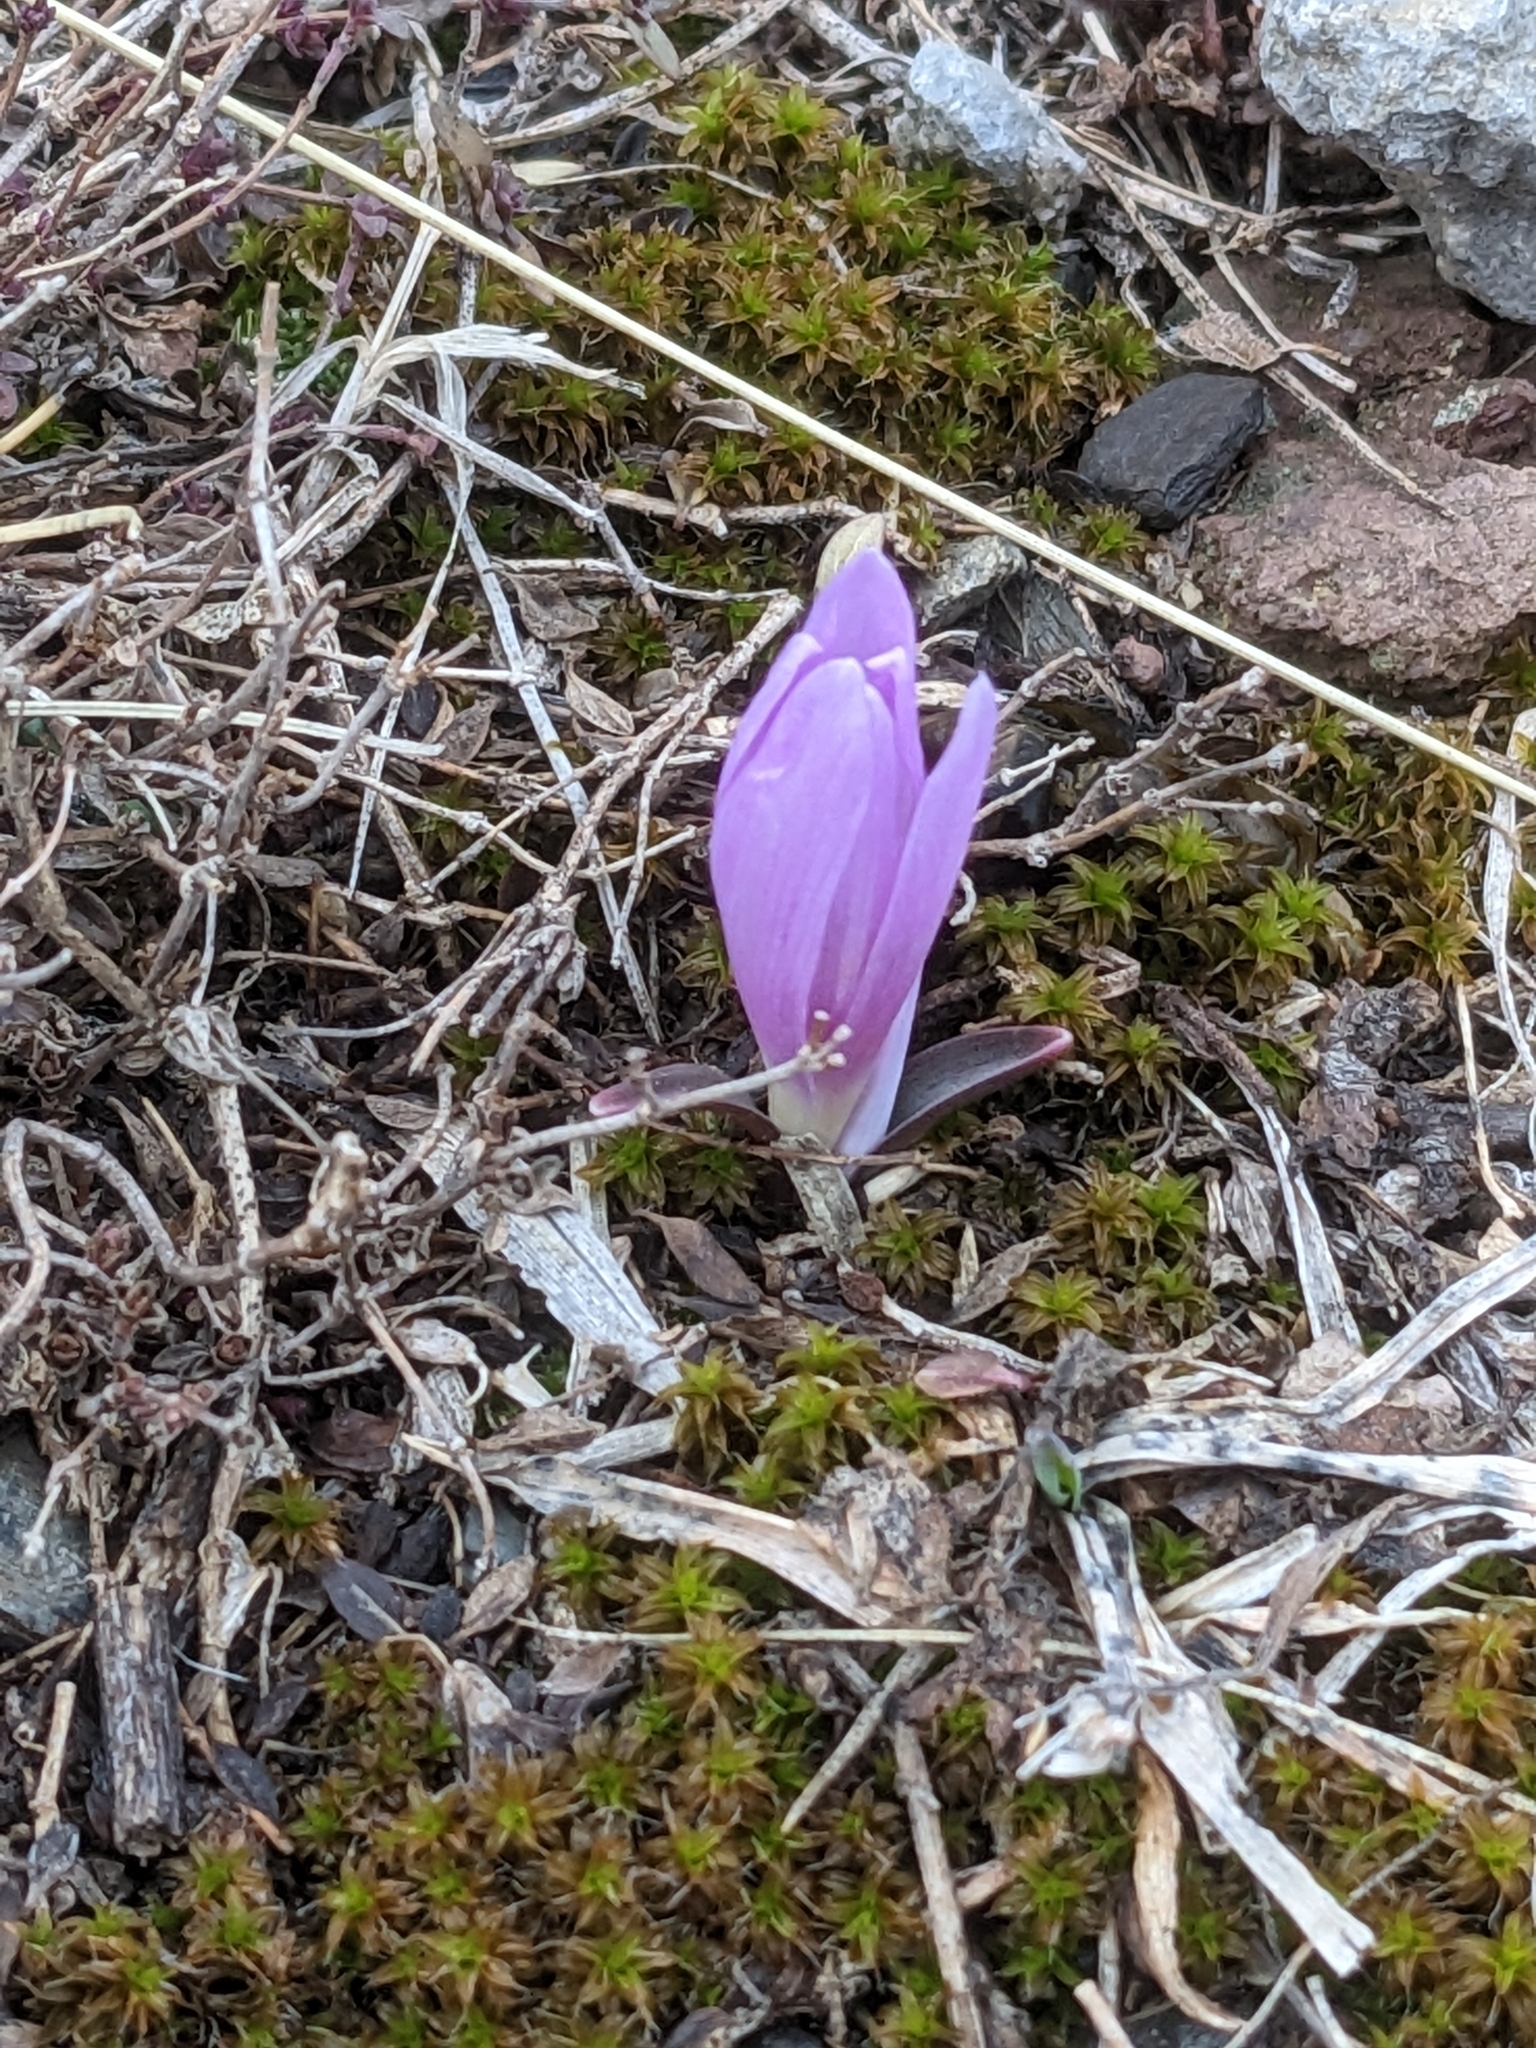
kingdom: Plantae
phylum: Tracheophyta
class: Liliopsida
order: Liliales
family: Colchicaceae
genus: Colchicum
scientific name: Colchicum trigynum
